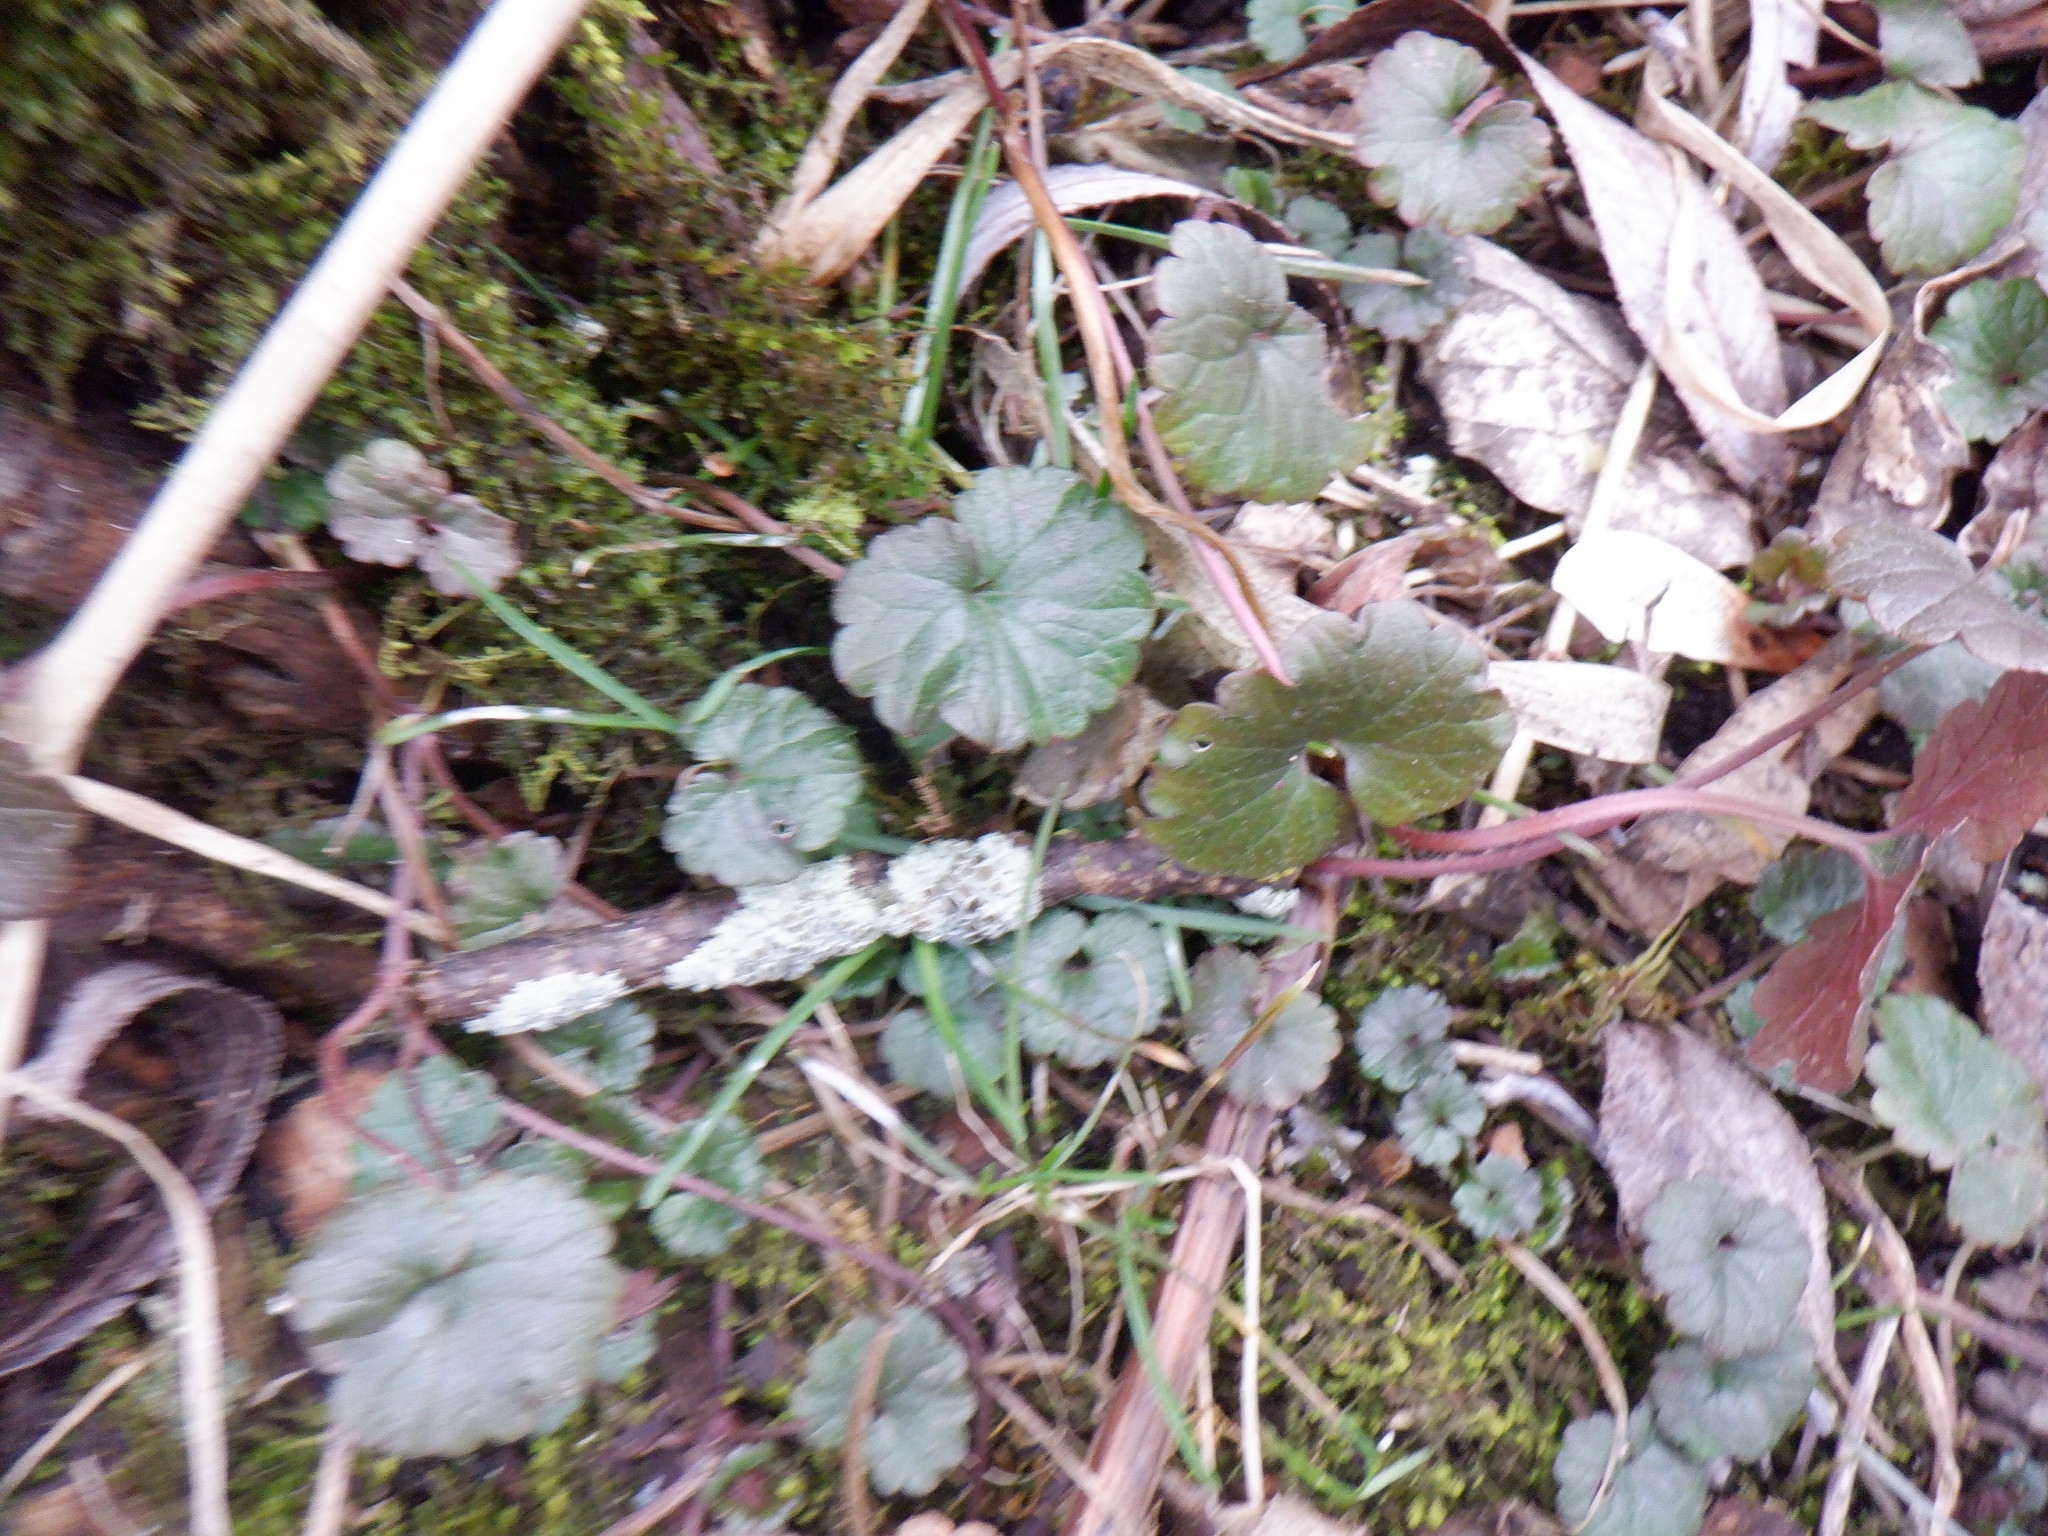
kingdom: Plantae
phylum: Tracheophyta
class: Magnoliopsida
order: Lamiales
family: Lamiaceae
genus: Glechoma
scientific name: Glechoma hederacea
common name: Ground ivy
